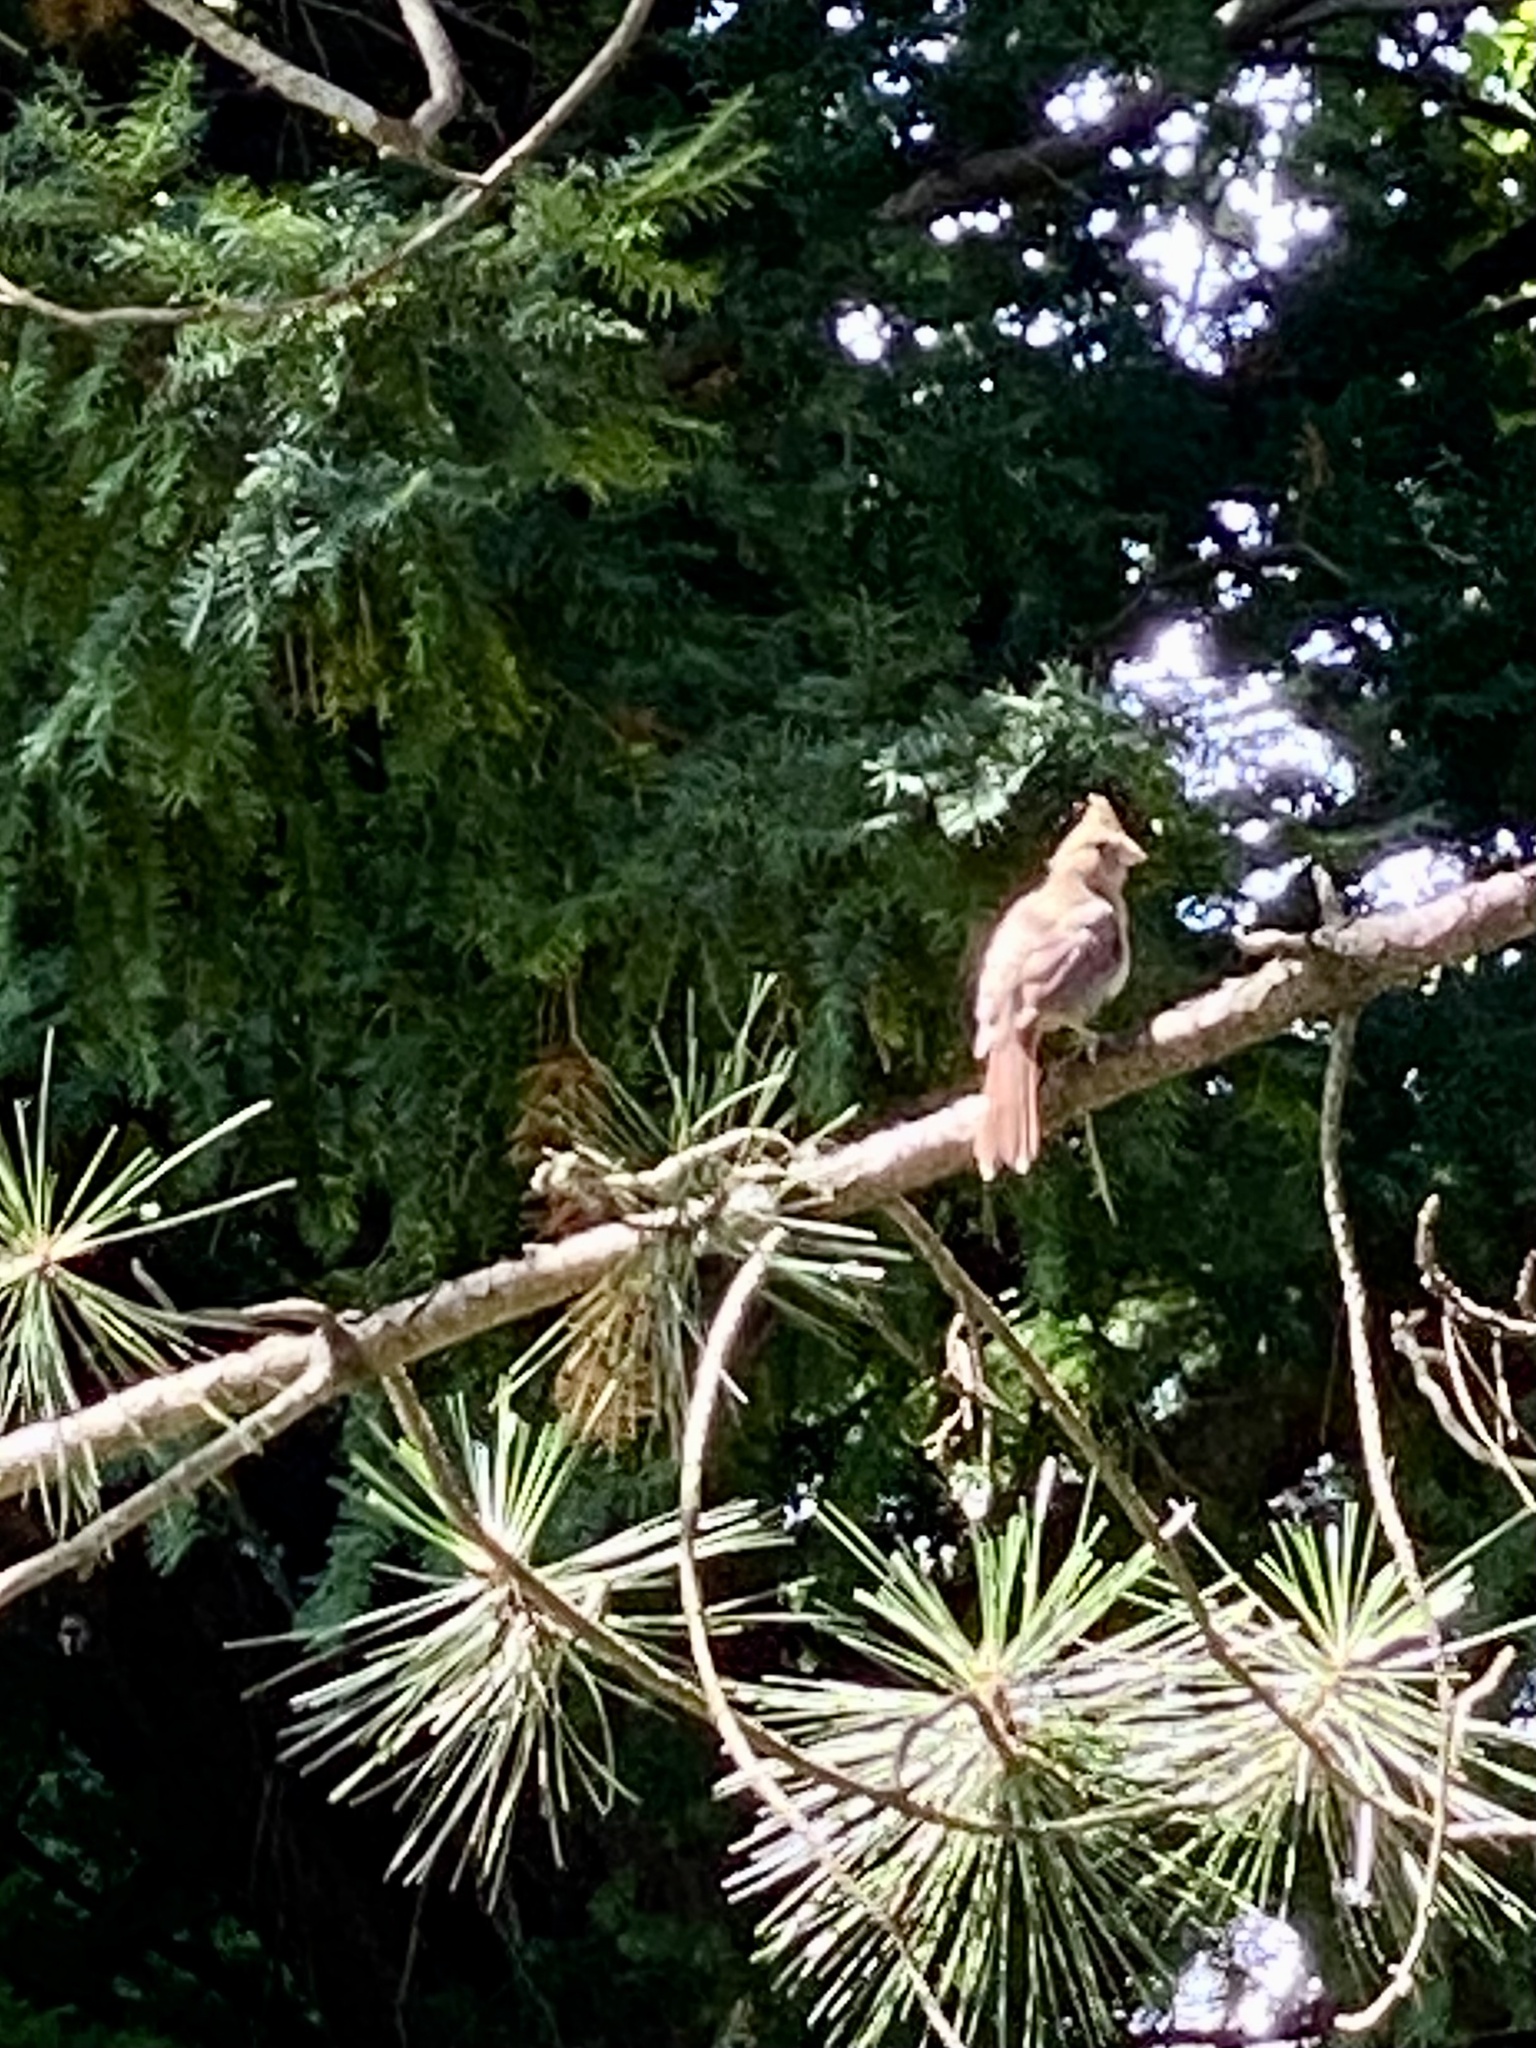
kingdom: Animalia
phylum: Chordata
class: Aves
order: Passeriformes
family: Cardinalidae
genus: Cardinalis
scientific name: Cardinalis cardinalis
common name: Northern cardinal
